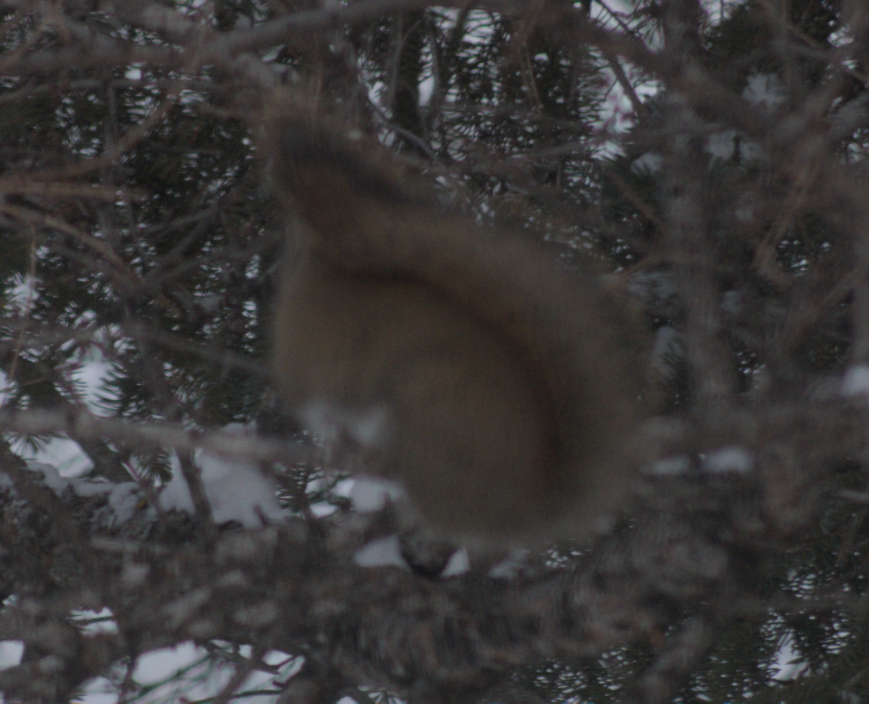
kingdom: Animalia
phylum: Chordata
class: Mammalia
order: Rodentia
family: Sciuridae
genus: Tamiasciurus
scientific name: Tamiasciurus hudsonicus
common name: Red squirrel
